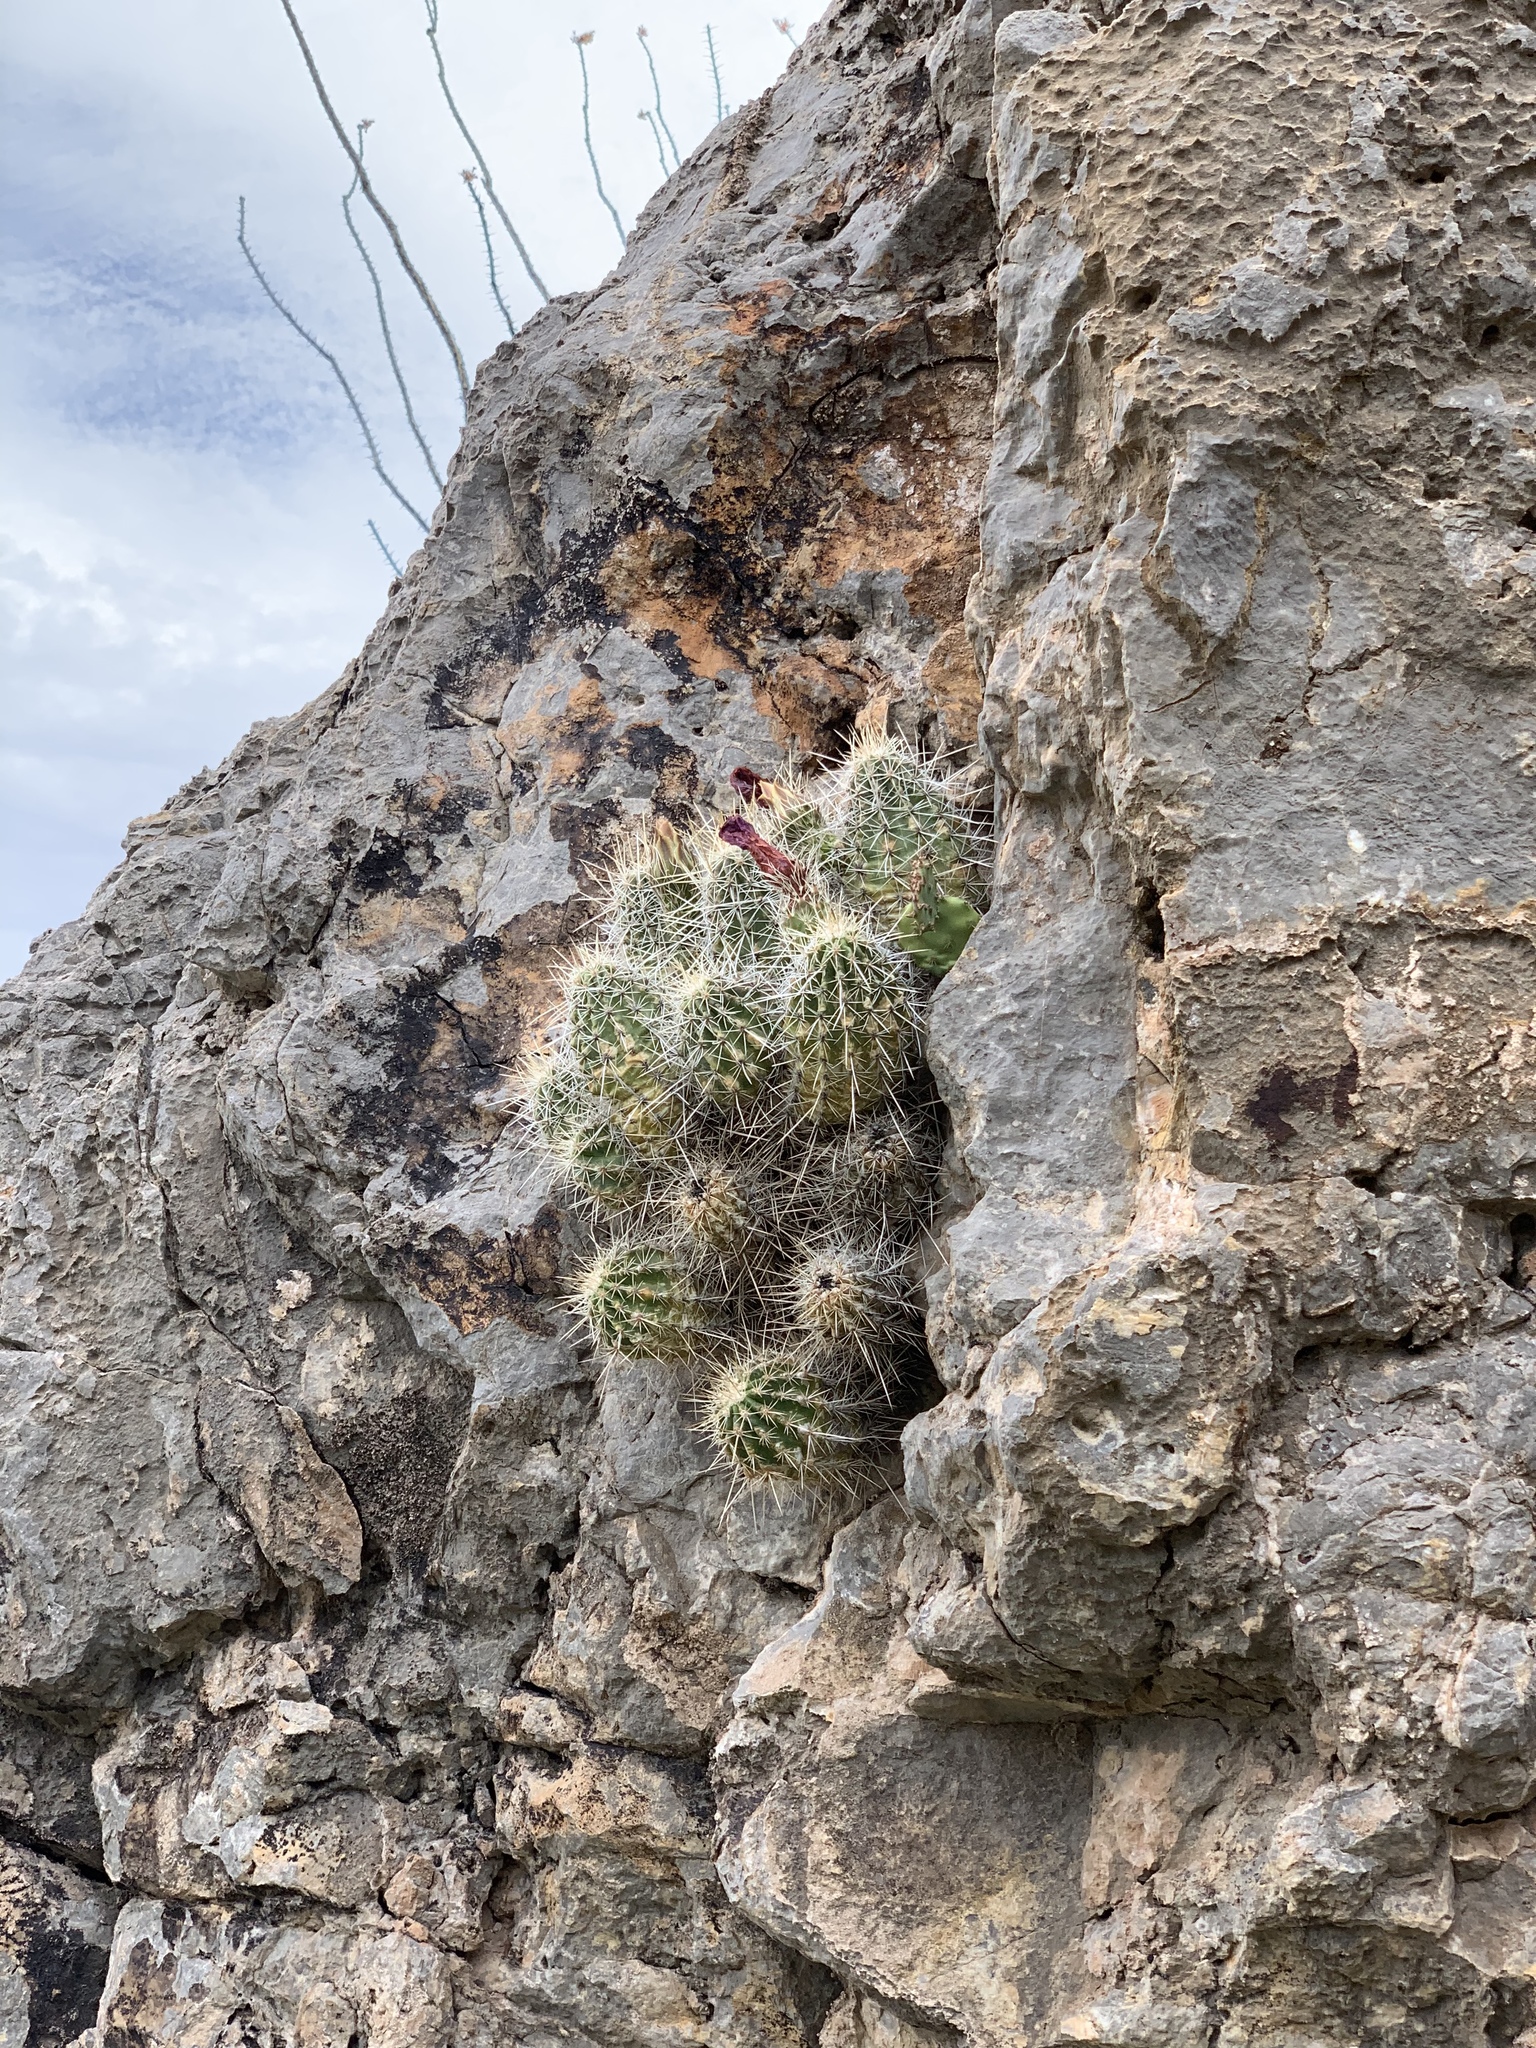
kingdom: Plantae
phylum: Tracheophyta
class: Magnoliopsida
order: Caryophyllales
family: Cactaceae
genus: Echinocereus
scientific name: Echinocereus stramineus
